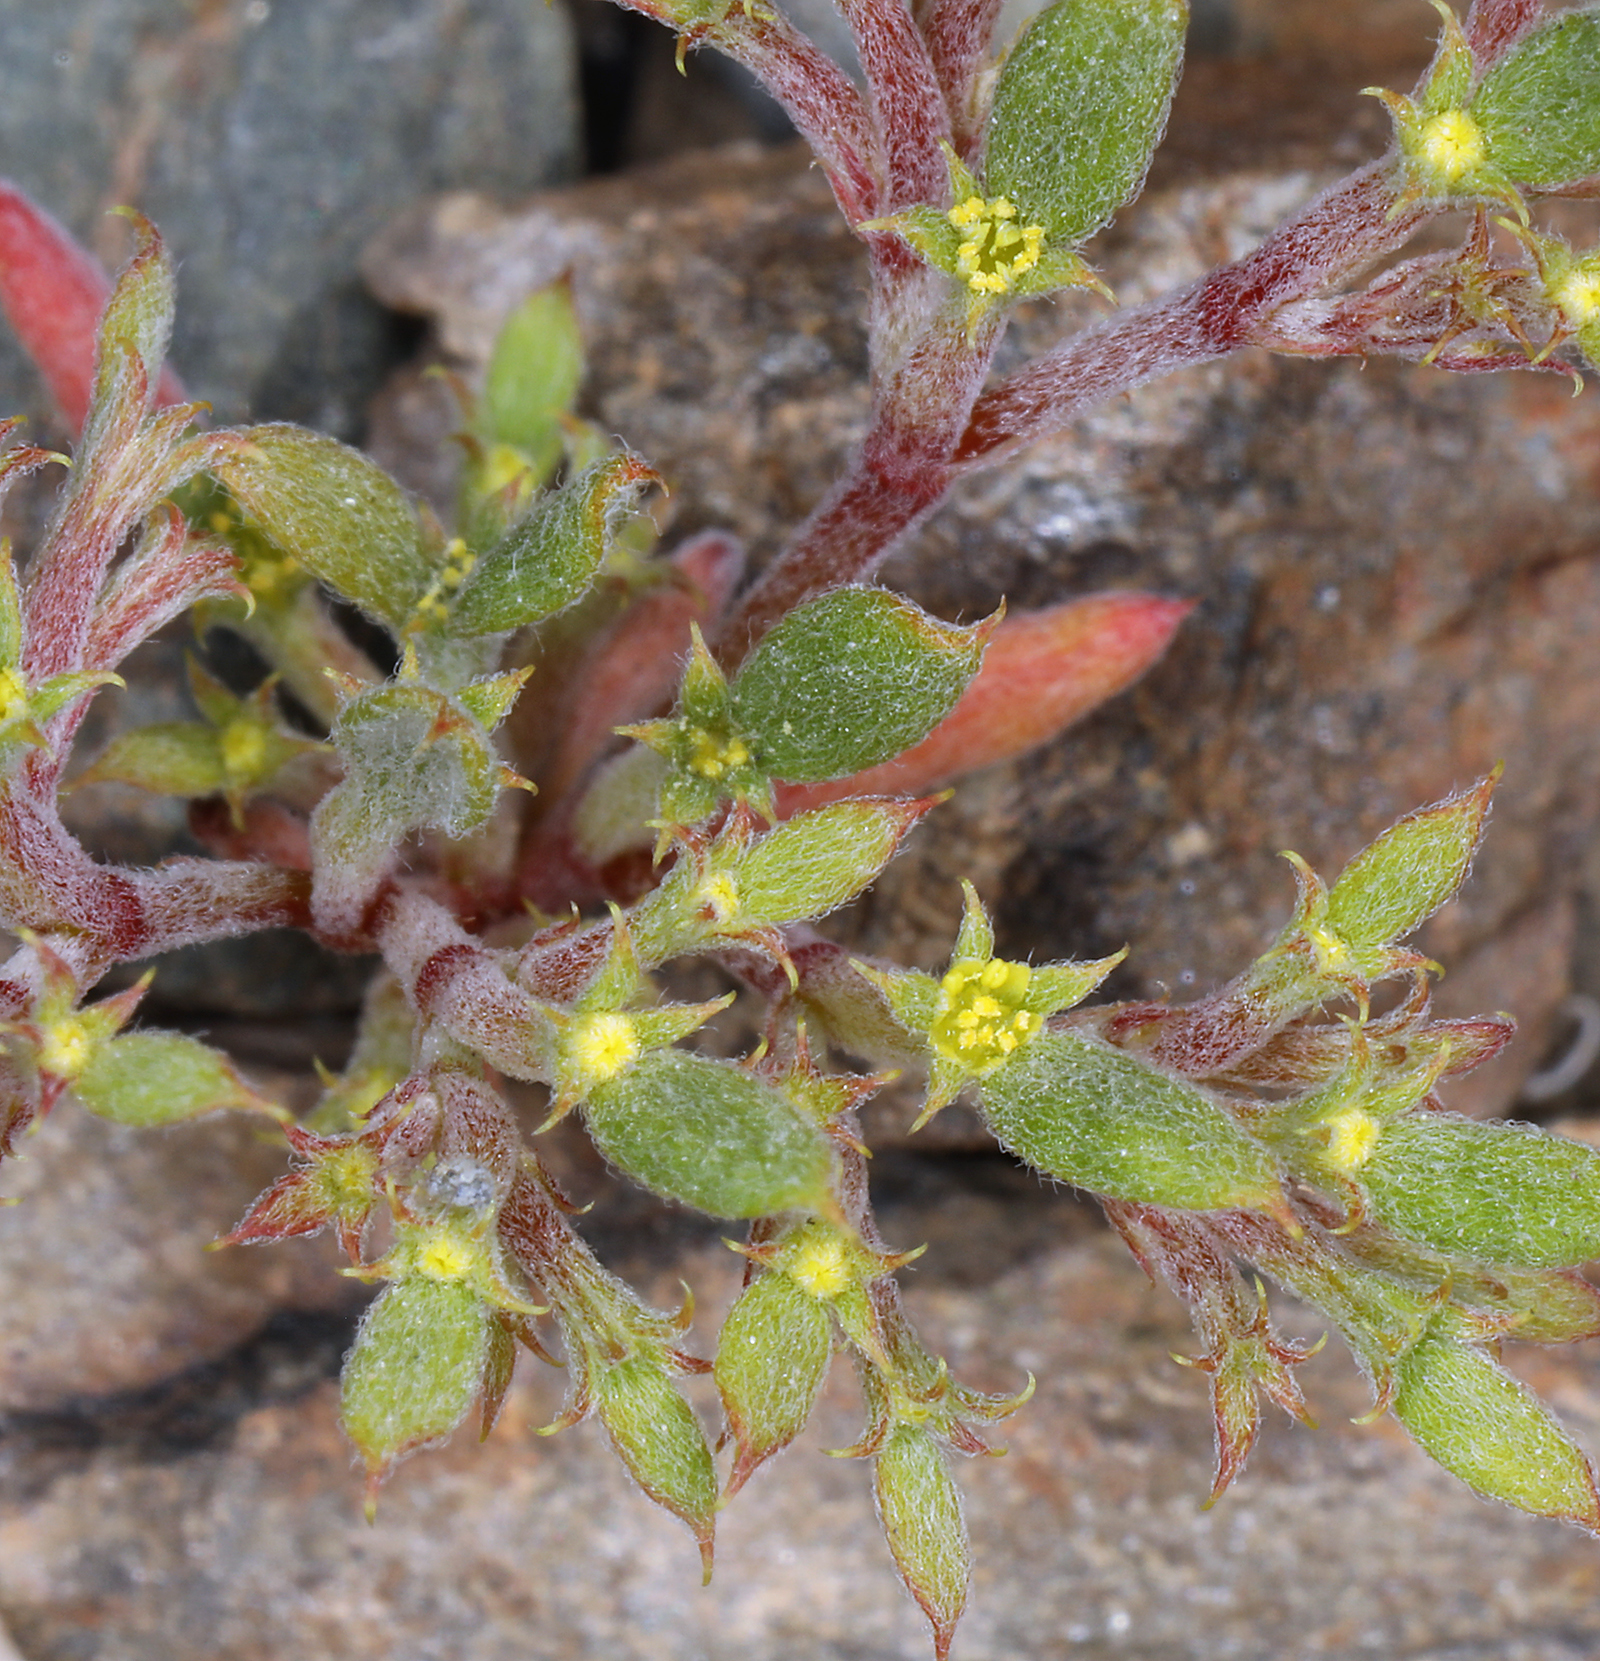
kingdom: Plantae
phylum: Tracheophyta
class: Magnoliopsida
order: Caryophyllales
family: Polygonaceae
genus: Chorizanthe
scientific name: Chorizanthe watsonii
